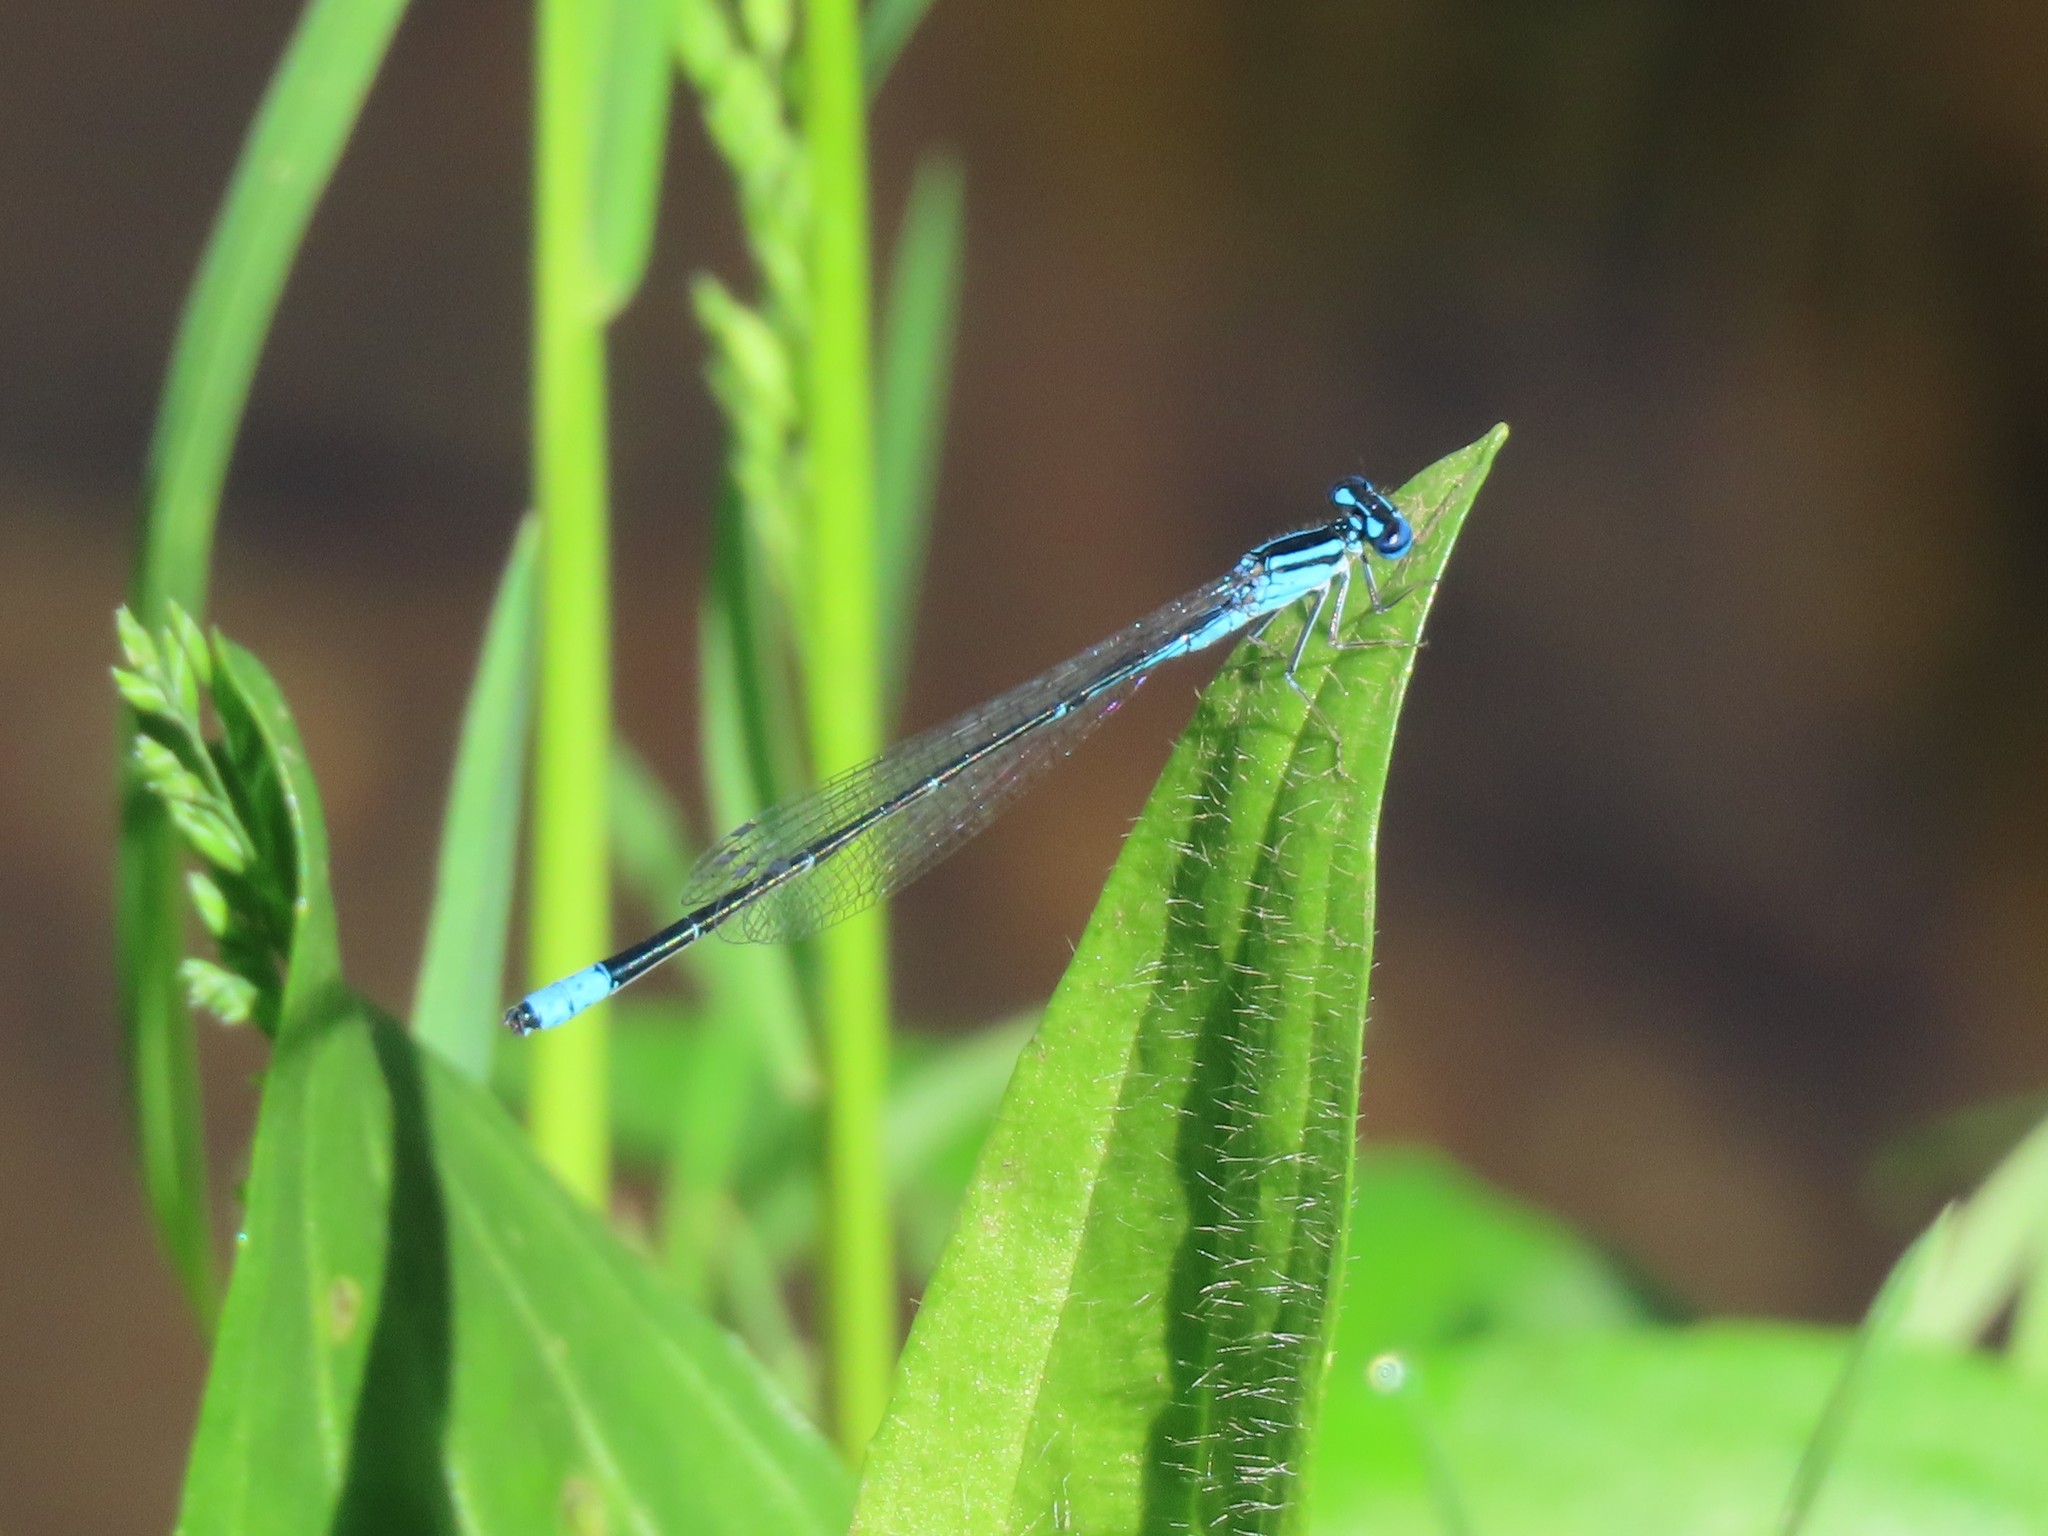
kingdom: Animalia
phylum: Arthropoda
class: Insecta
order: Odonata
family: Coenagrionidae
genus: Enallagma
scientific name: Enallagma divagans
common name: Turquoise bluet
